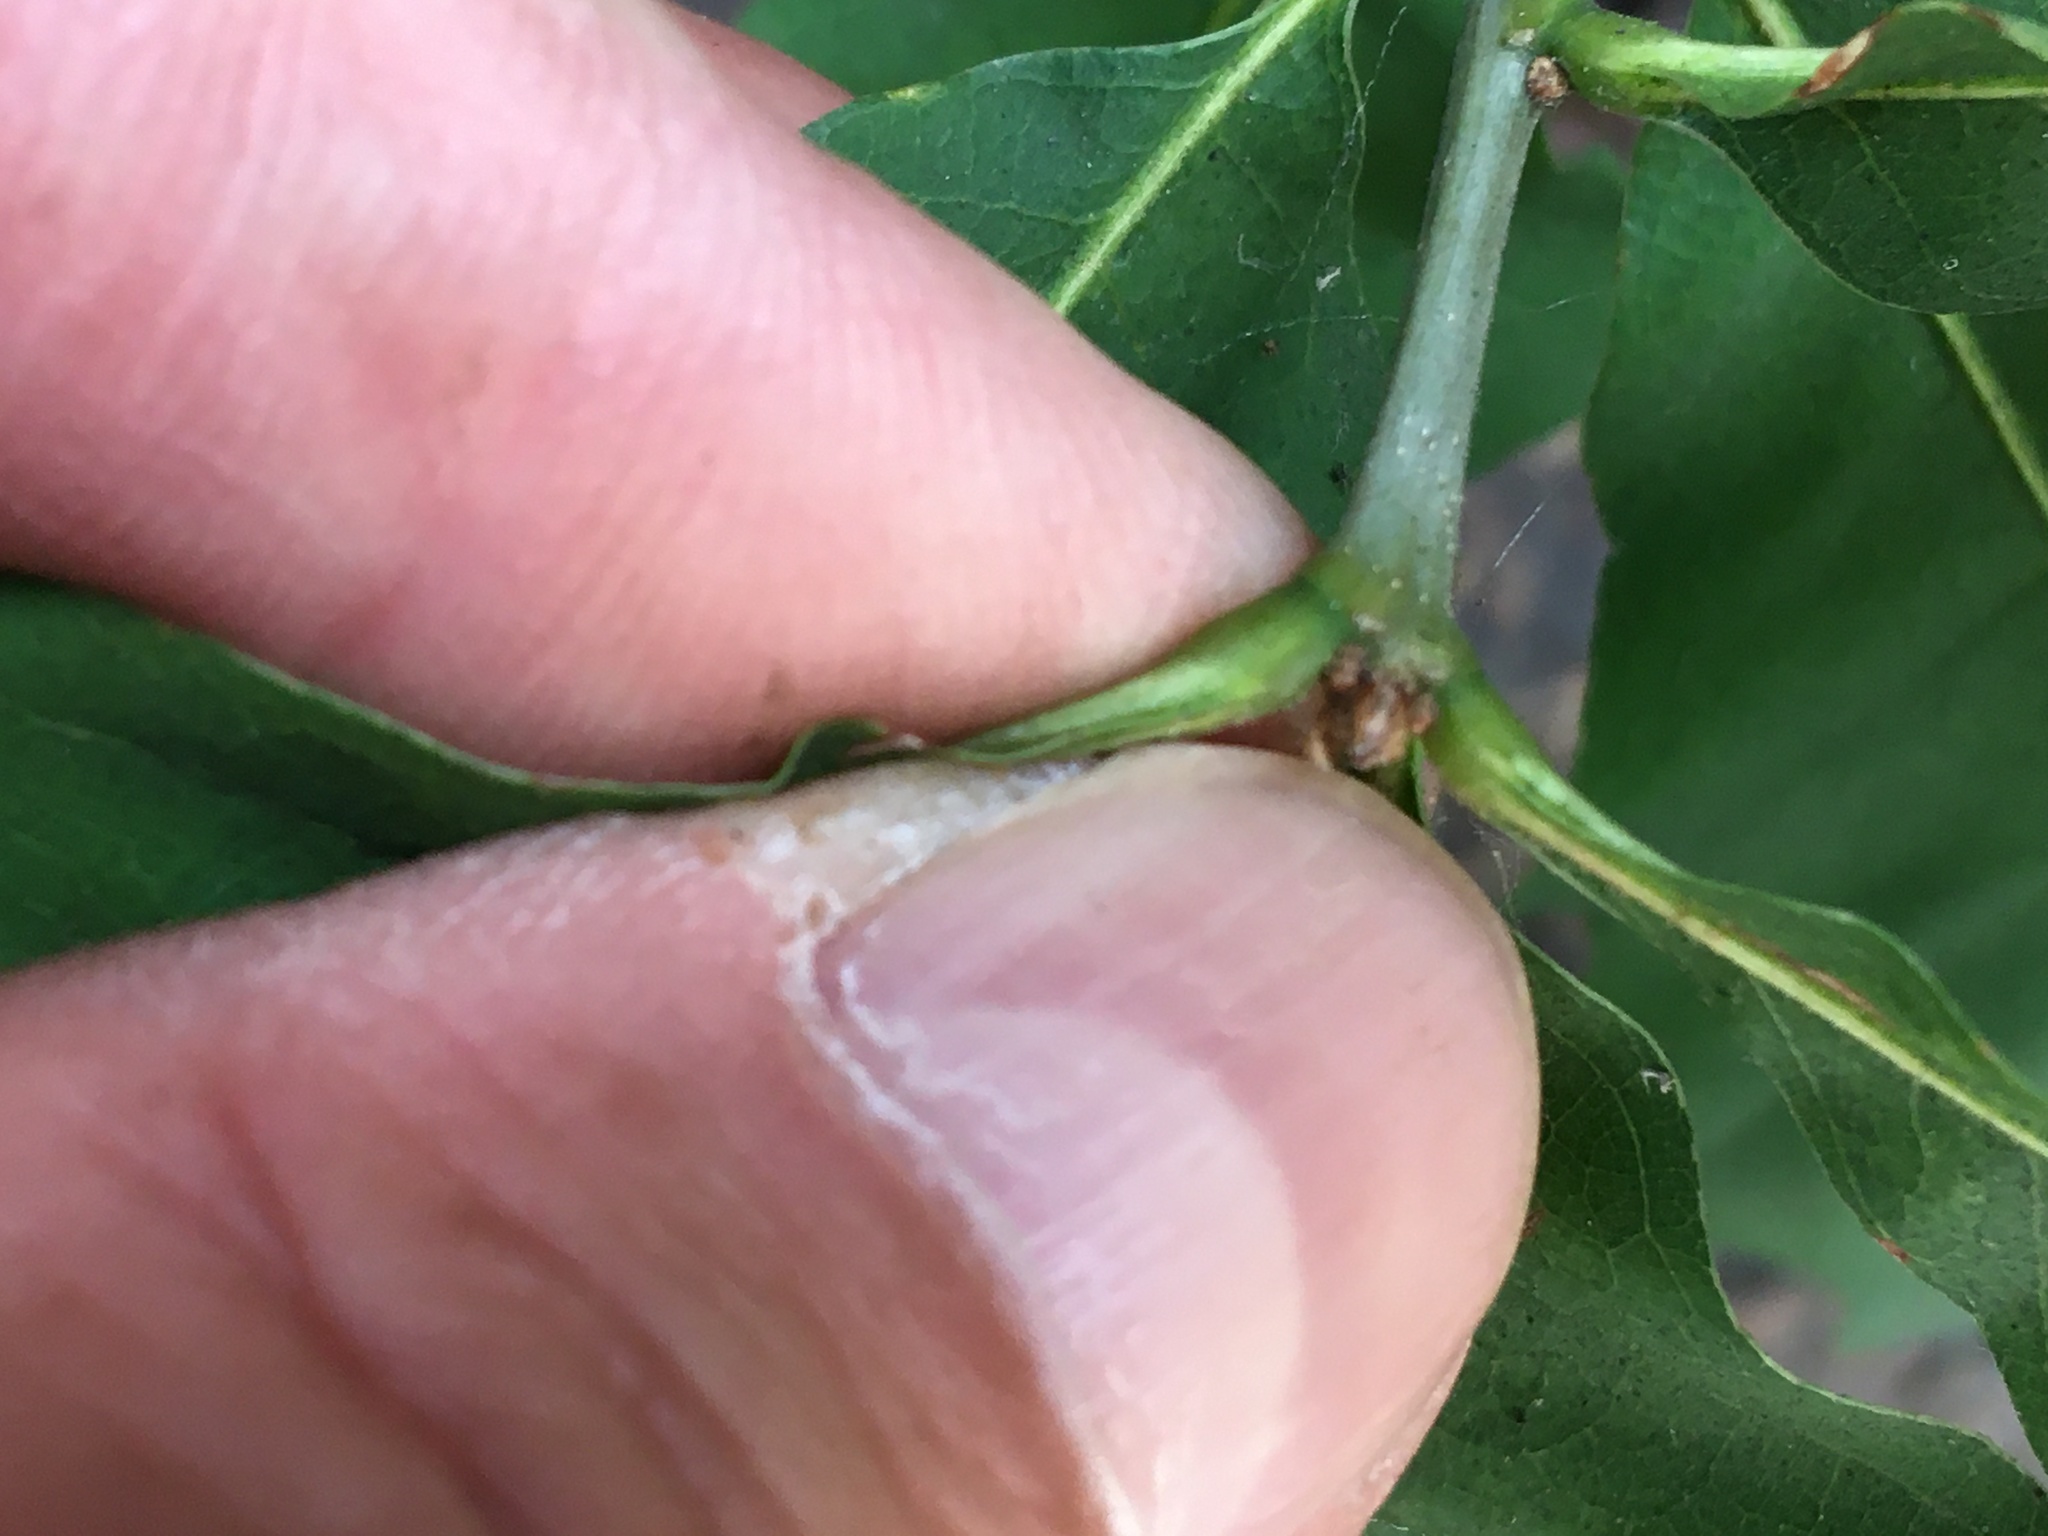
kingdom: Plantae
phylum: Tracheophyta
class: Magnoliopsida
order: Fagales
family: Fagaceae
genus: Quercus
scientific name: Quercus rubra
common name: Red oak
